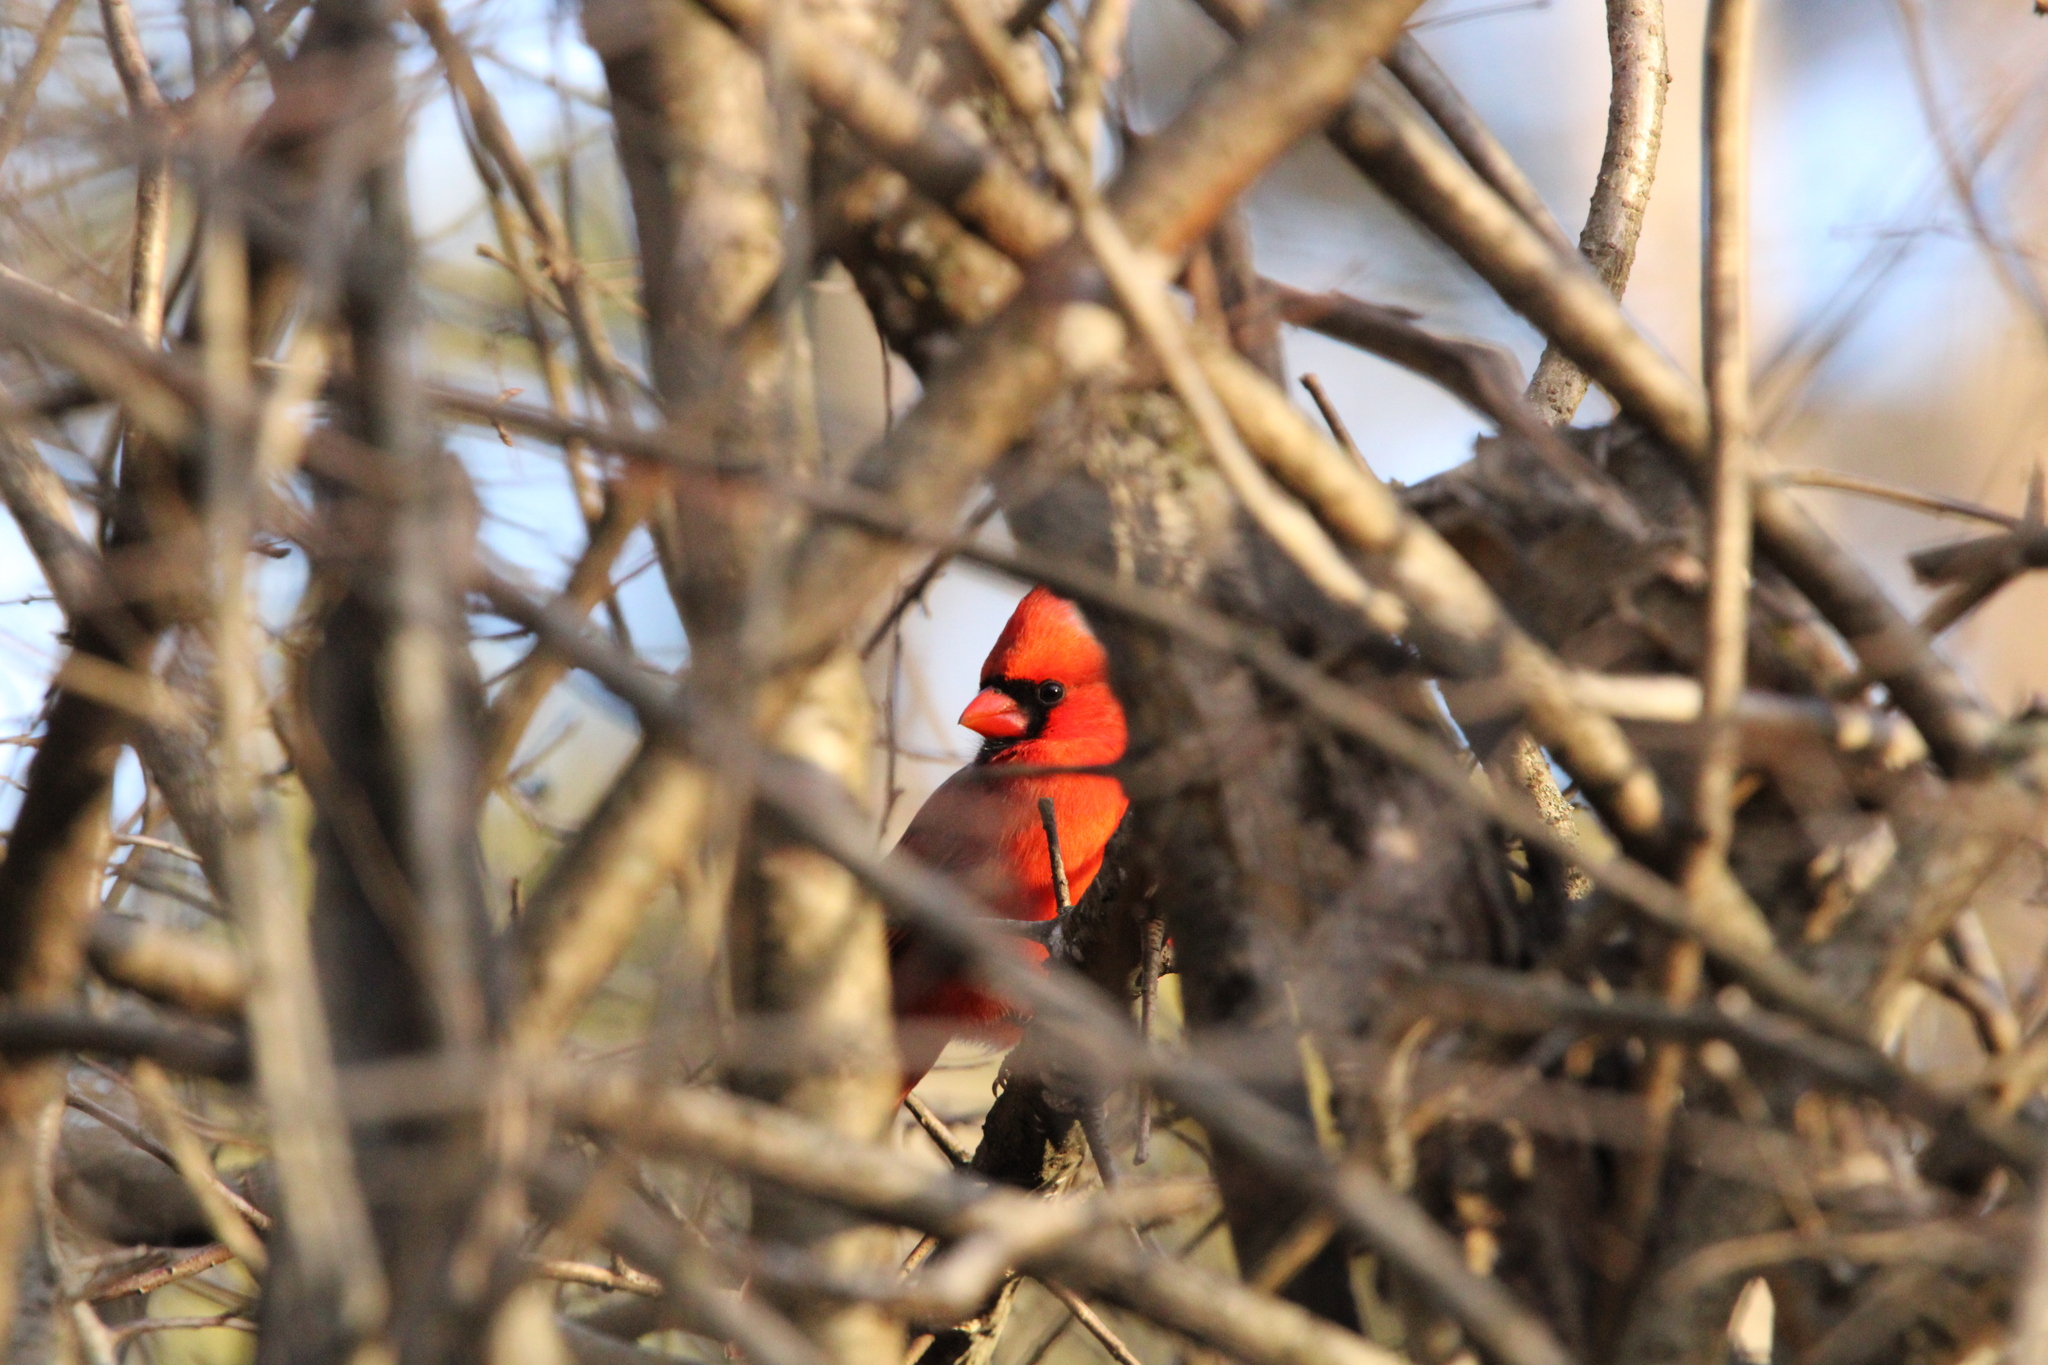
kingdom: Animalia
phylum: Chordata
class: Aves
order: Passeriformes
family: Cardinalidae
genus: Cardinalis
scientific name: Cardinalis cardinalis
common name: Northern cardinal
